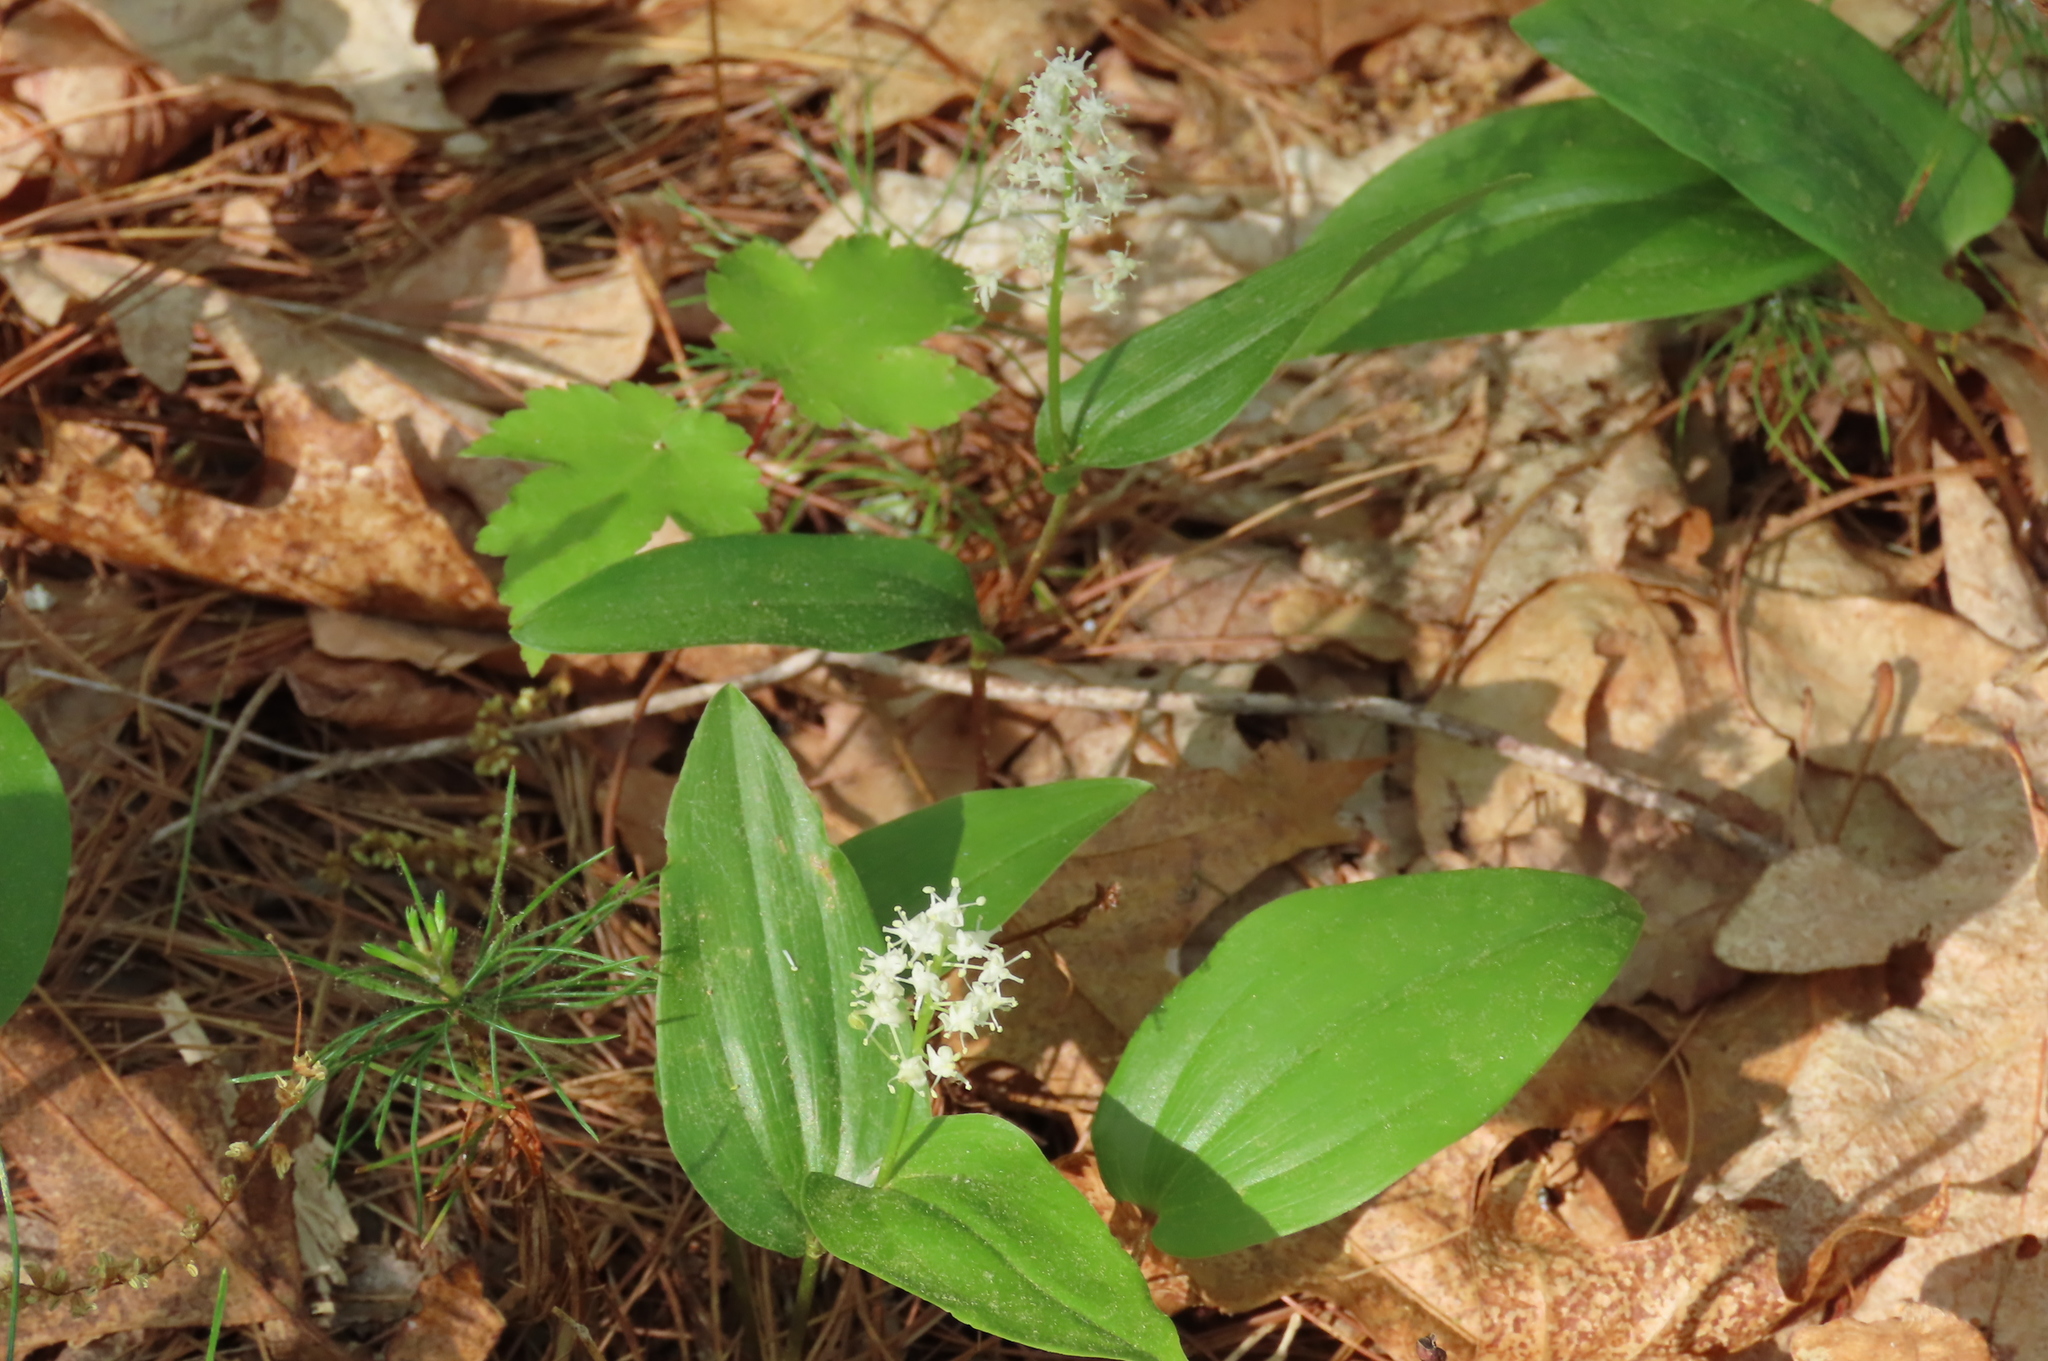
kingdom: Plantae
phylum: Tracheophyta
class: Liliopsida
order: Asparagales
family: Asparagaceae
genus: Maianthemum
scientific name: Maianthemum canadense
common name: False lily-of-the-valley
